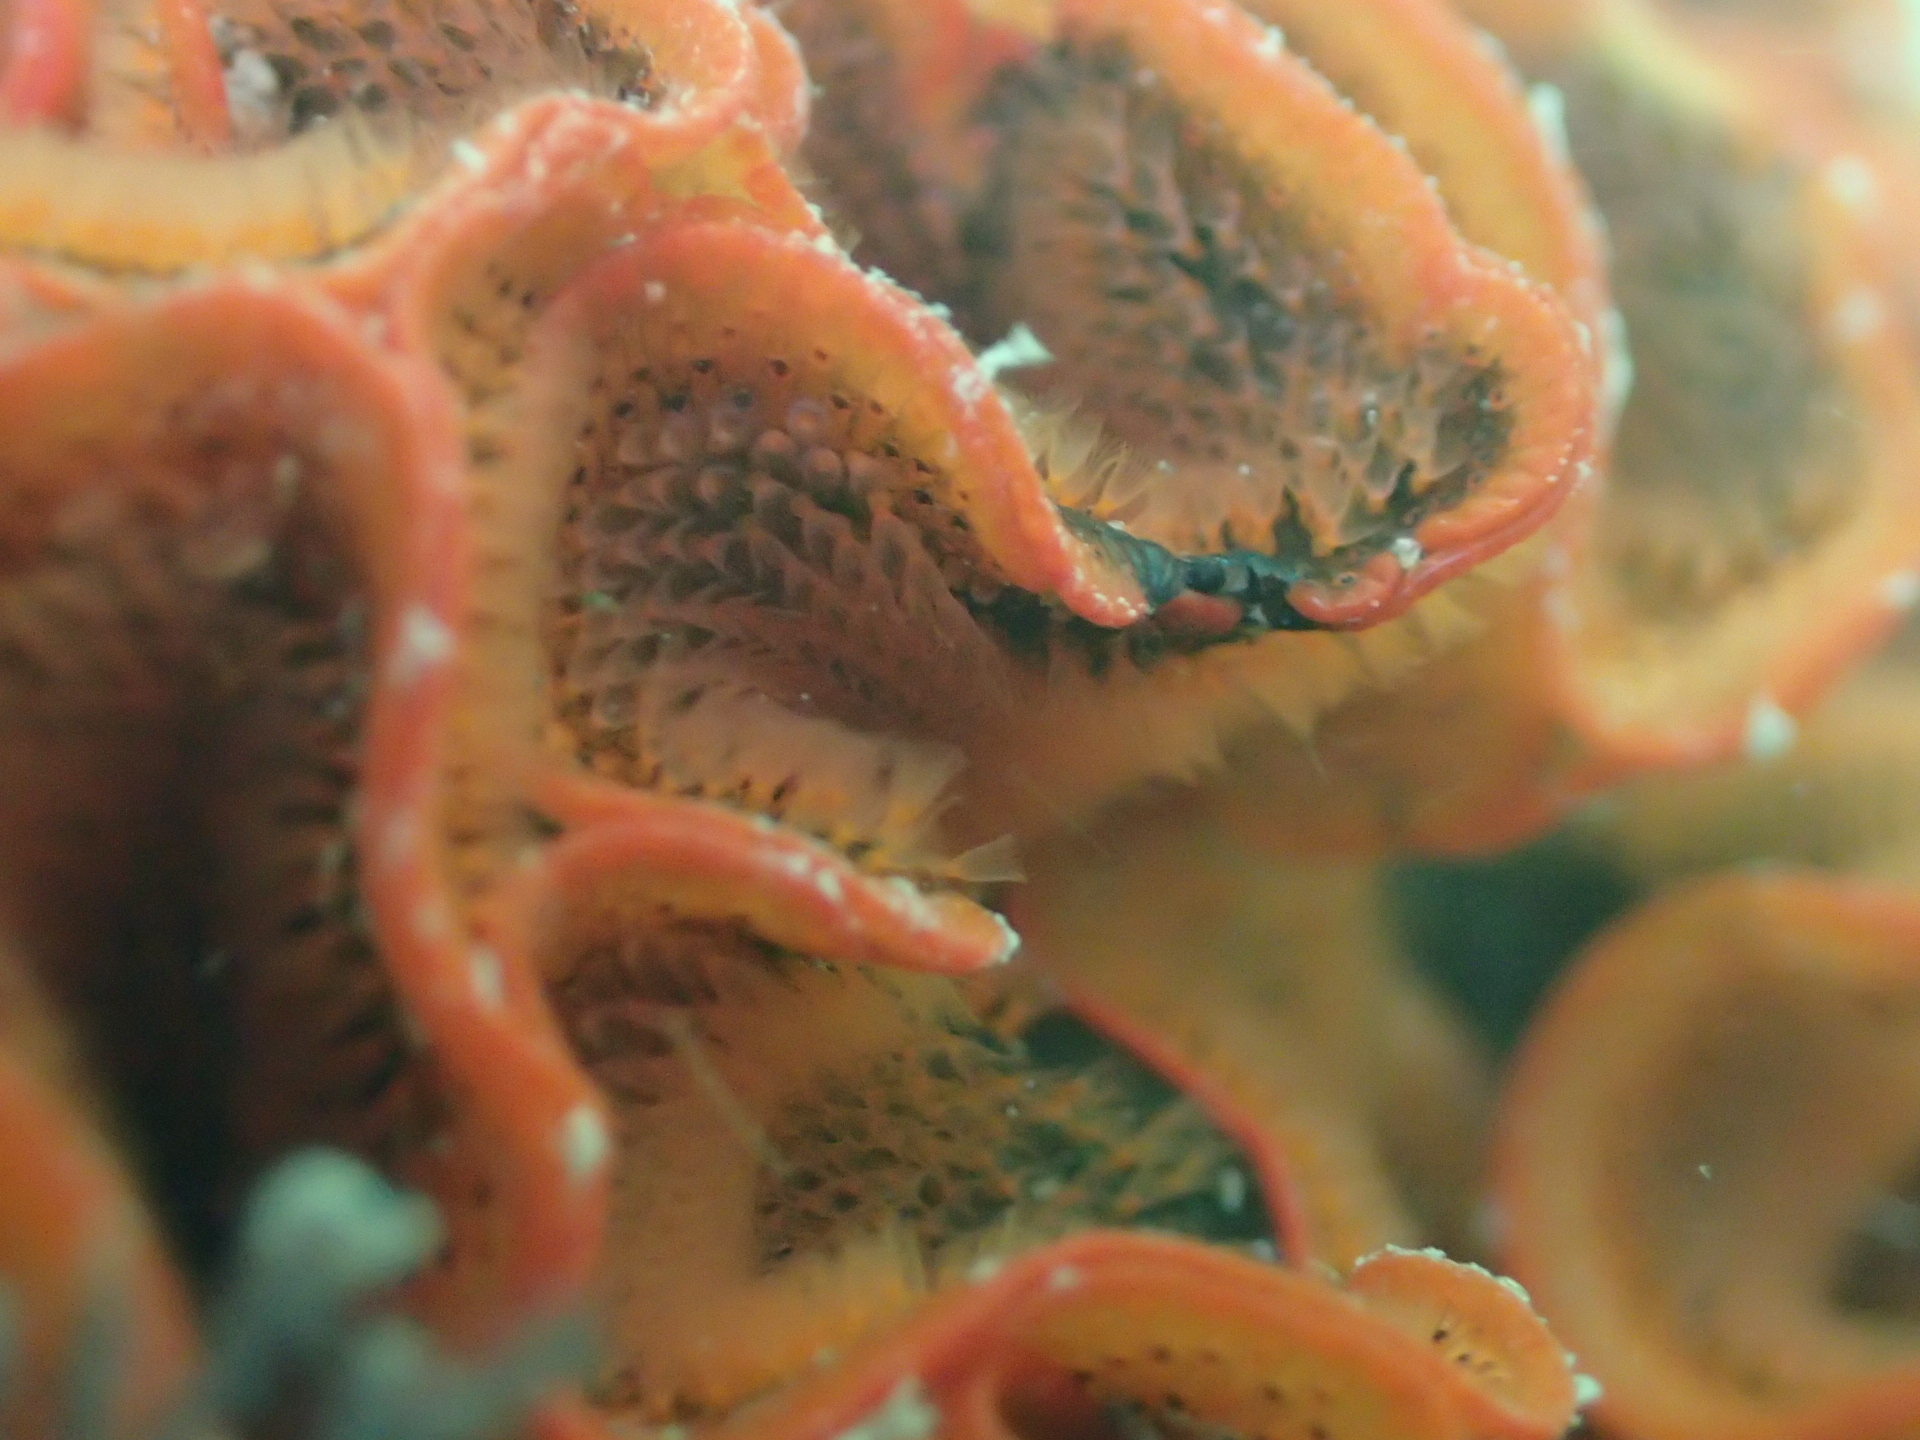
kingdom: Animalia
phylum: Bryozoa
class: Gymnolaemata
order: Cheilostomatida
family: Watersiporidae
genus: Watersipora
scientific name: Watersipora subtorquata
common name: Bryozoan
